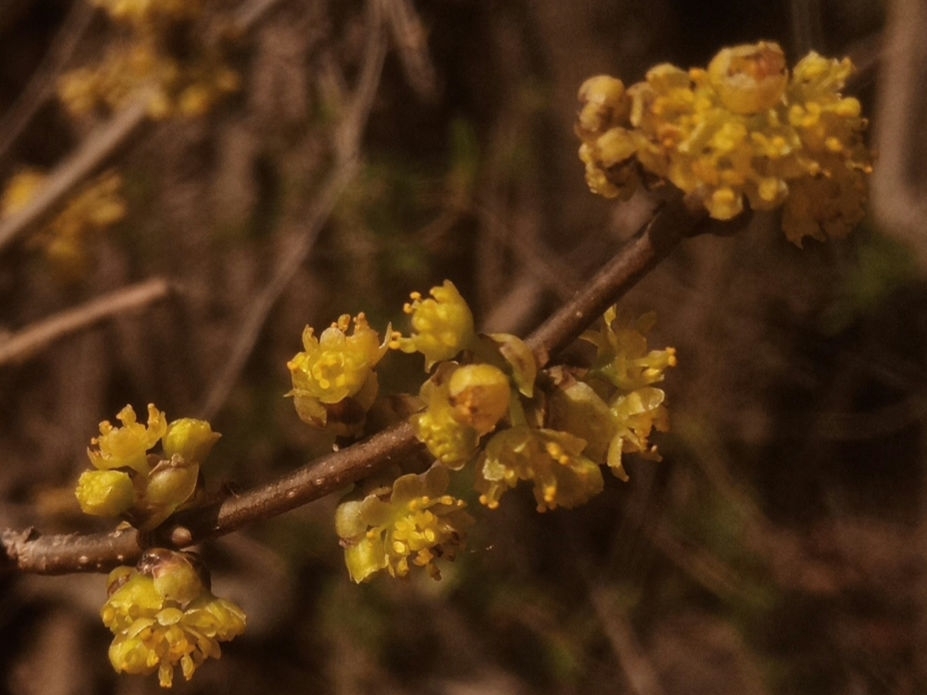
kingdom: Plantae
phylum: Tracheophyta
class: Magnoliopsida
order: Laurales
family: Lauraceae
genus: Lindera
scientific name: Lindera benzoin
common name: Spicebush
